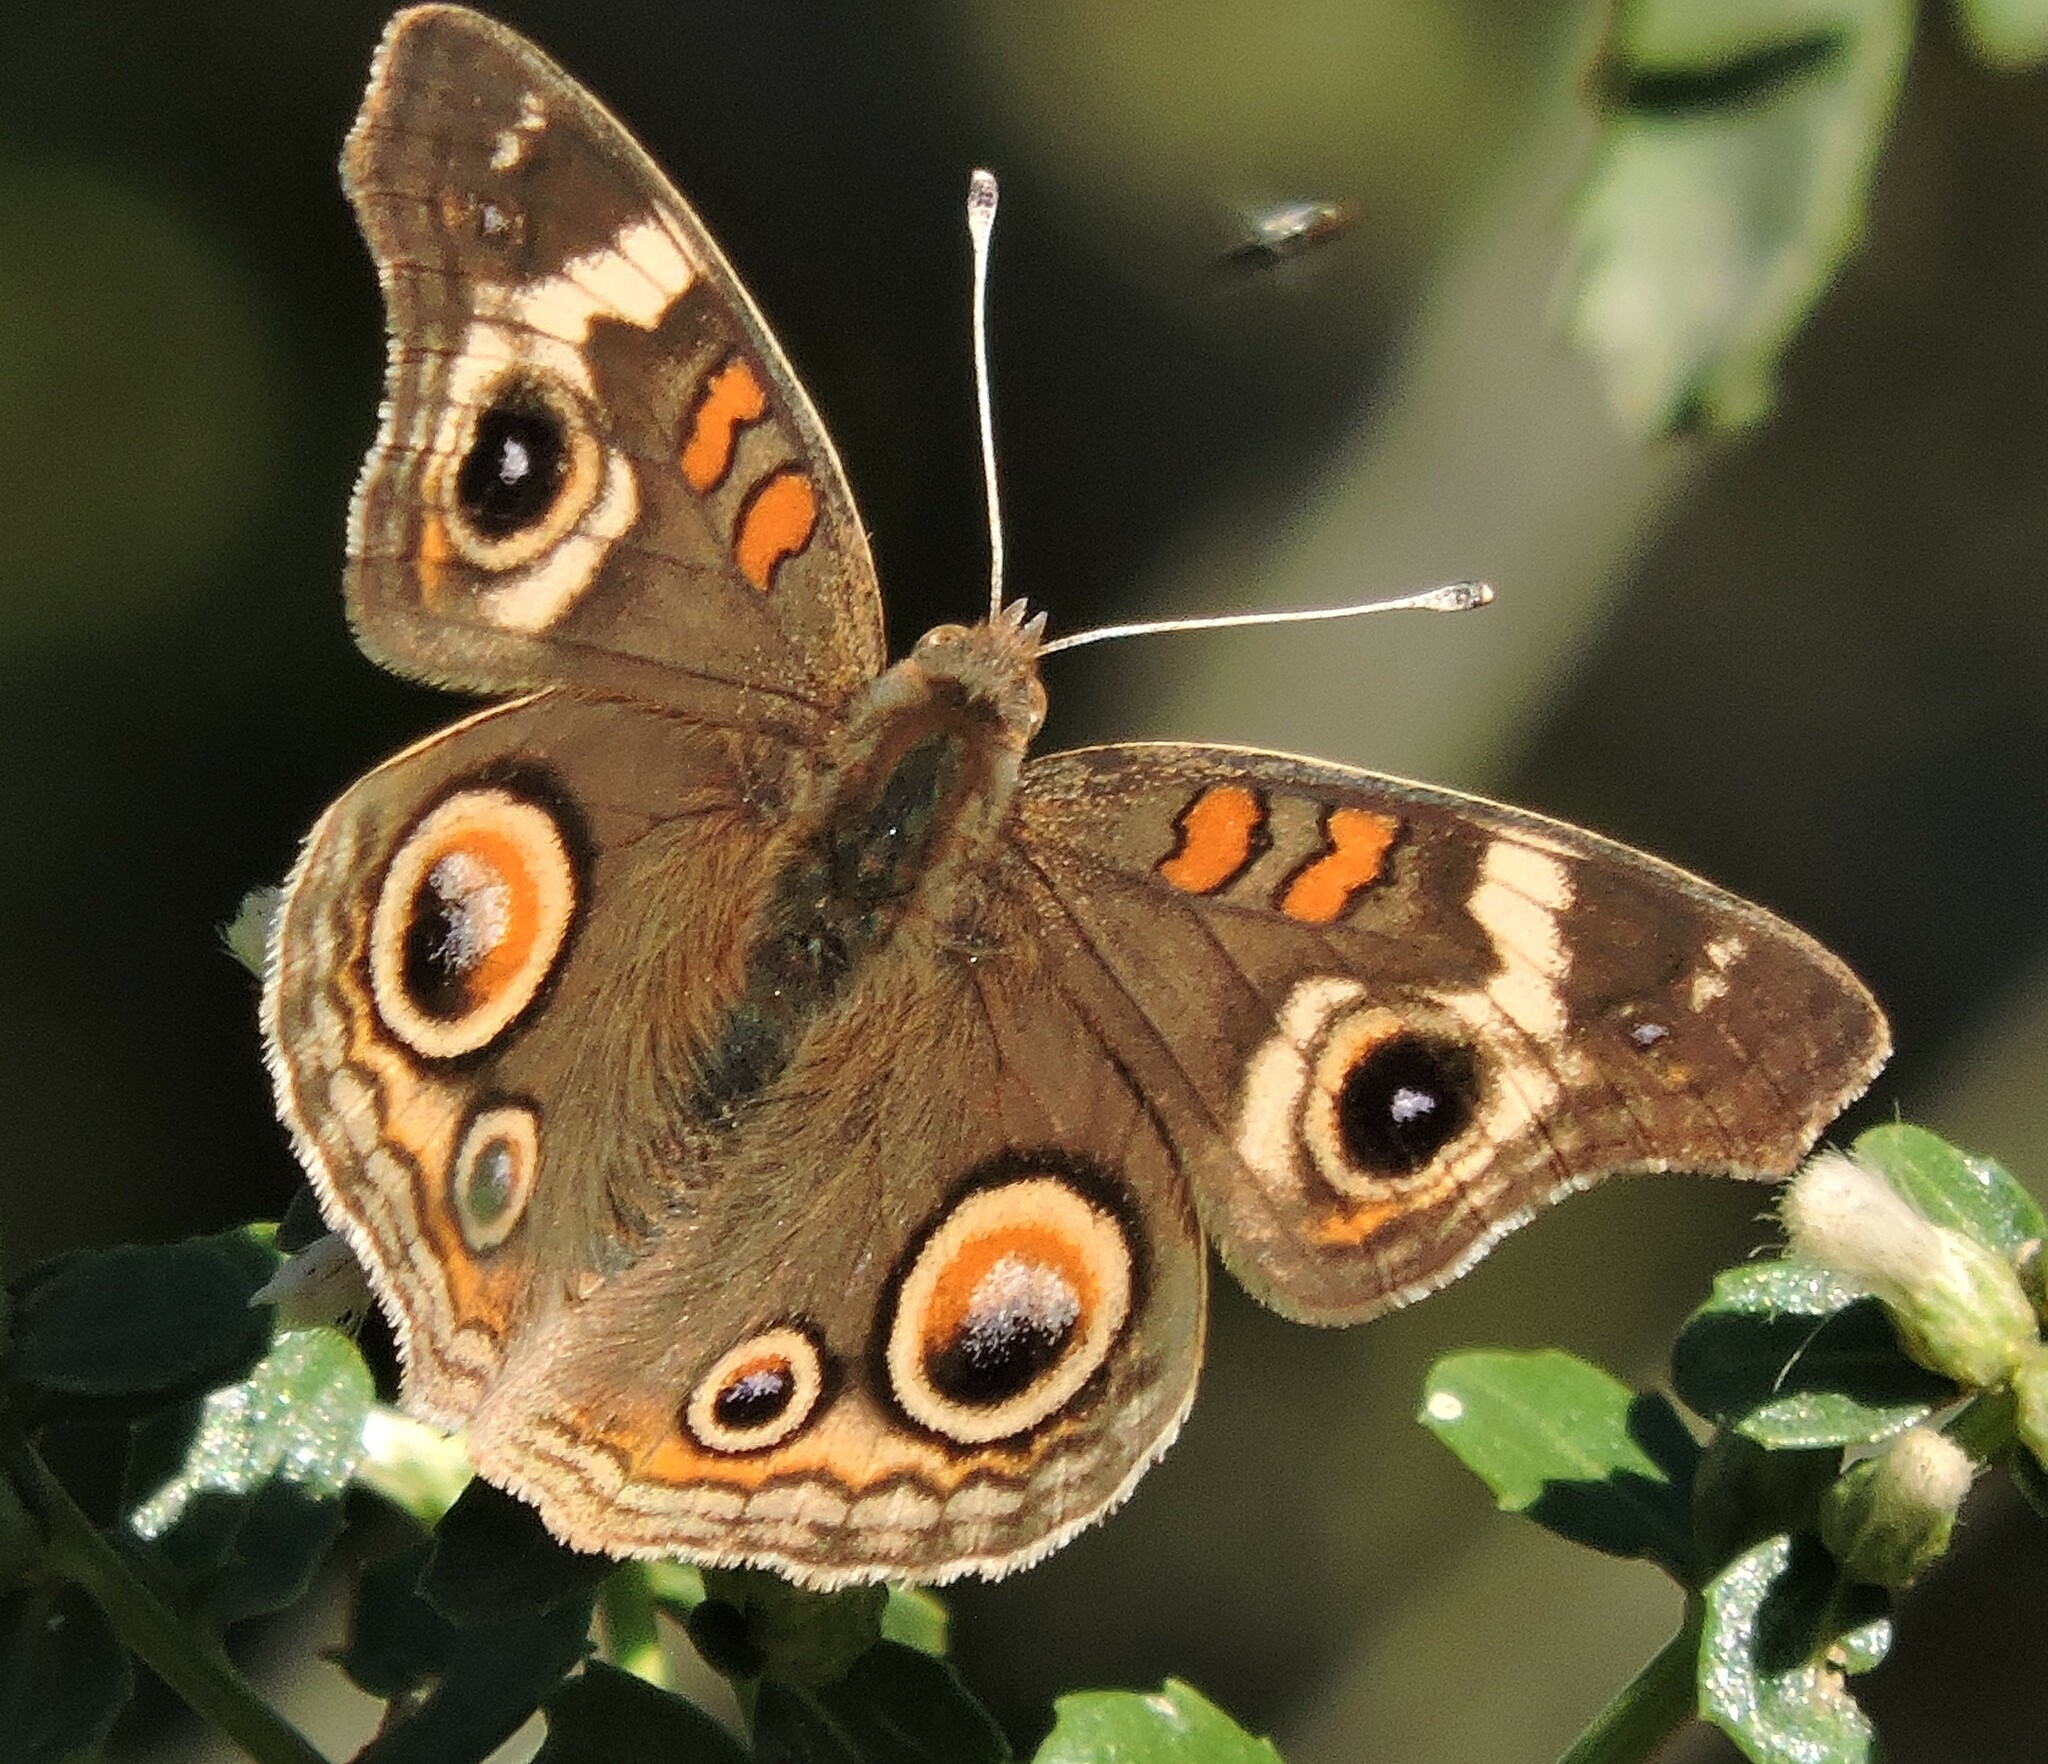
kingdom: Animalia
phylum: Arthropoda
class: Insecta
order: Lepidoptera
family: Nymphalidae
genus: Junonia
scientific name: Junonia grisea
